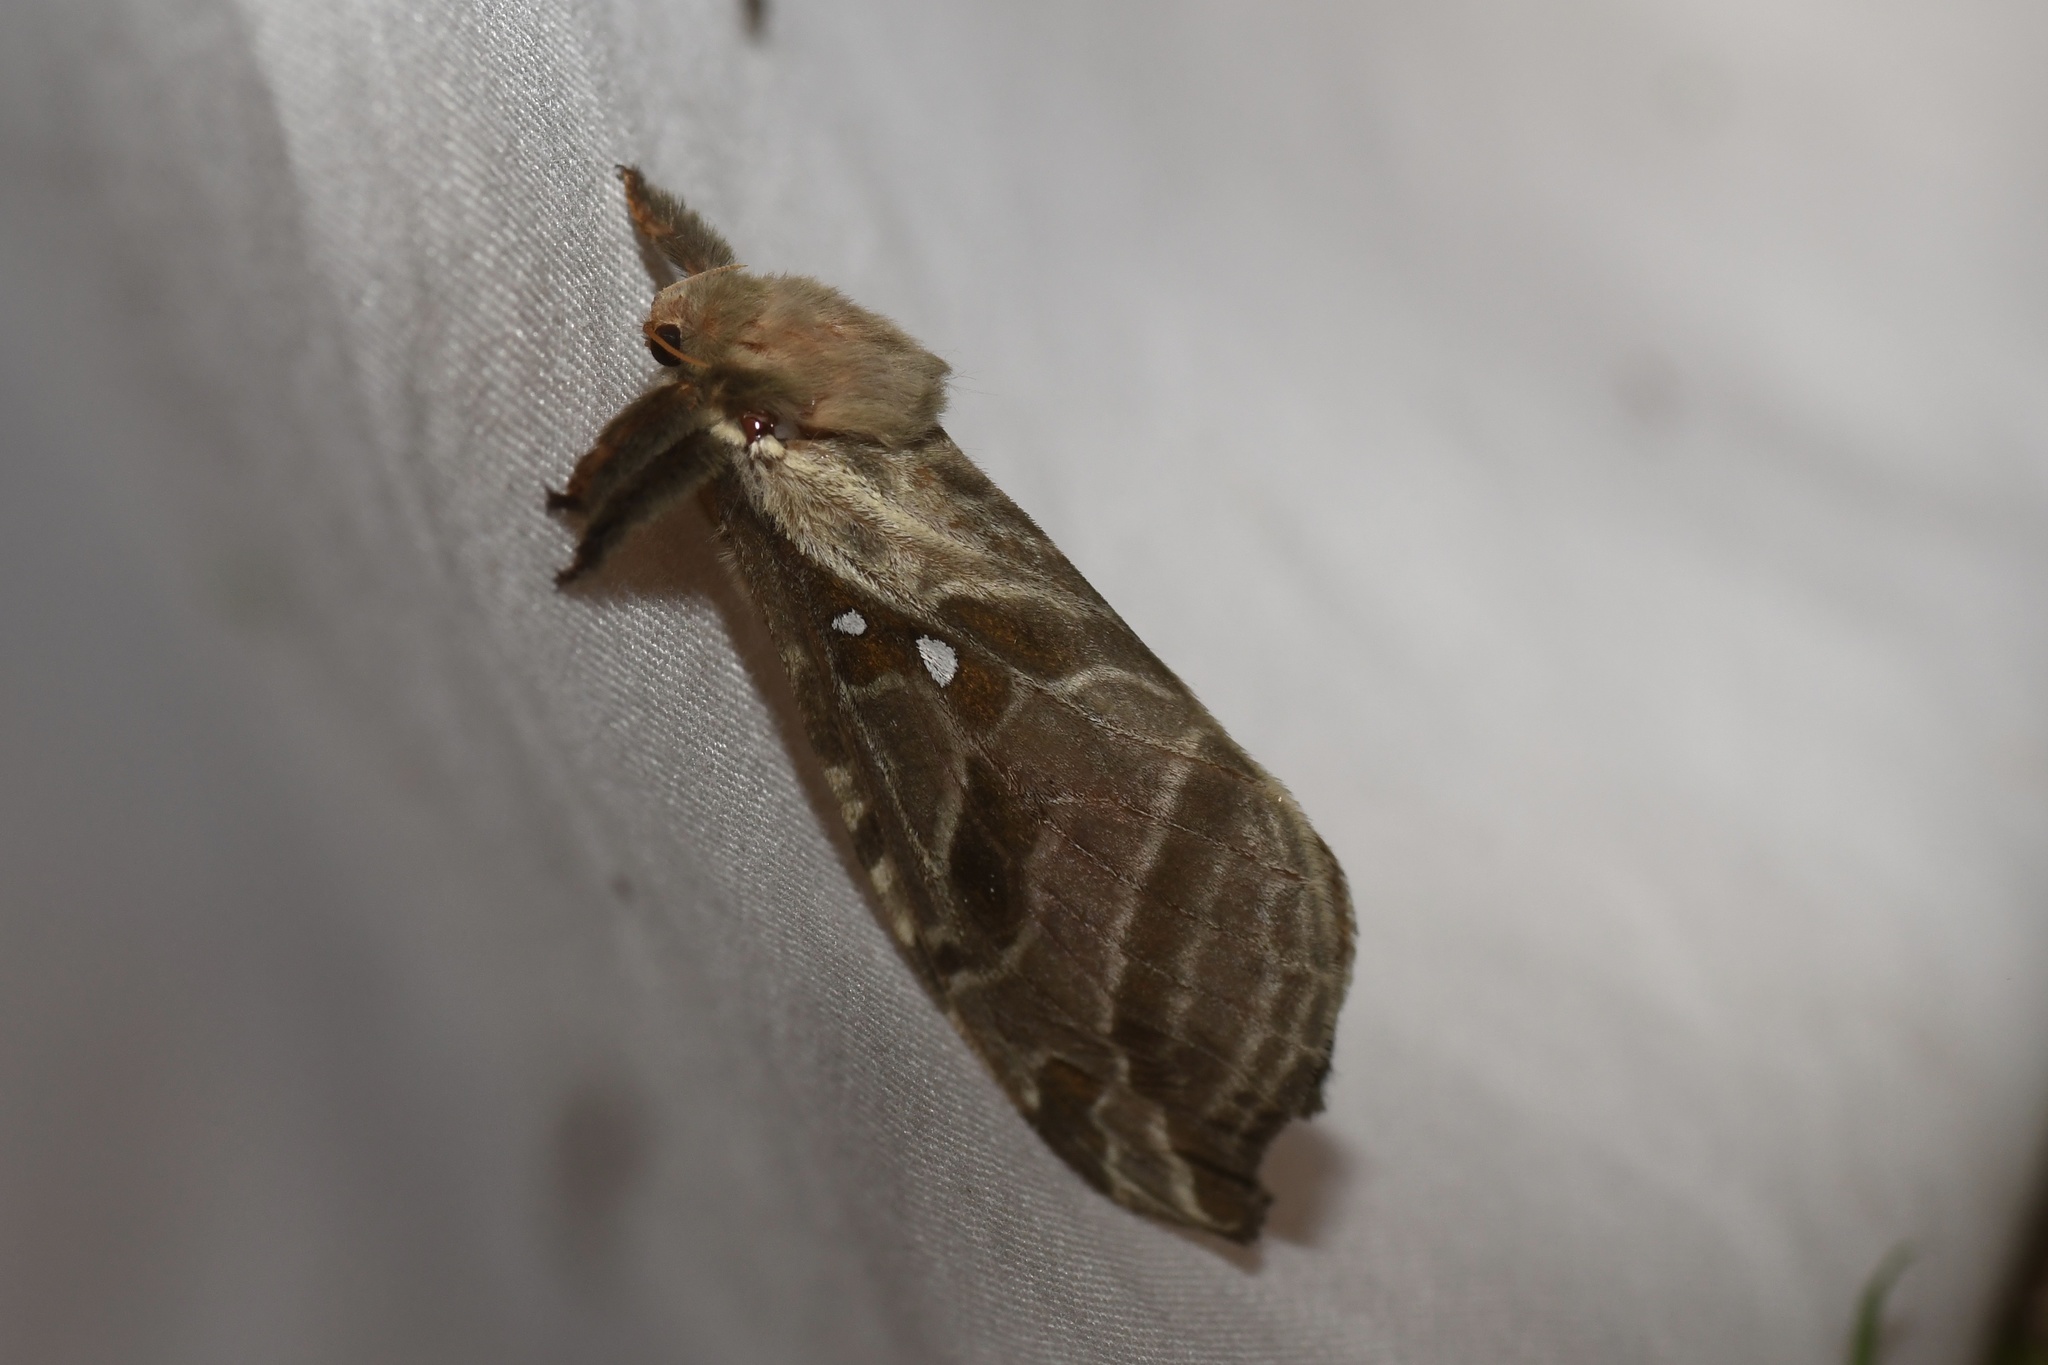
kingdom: Animalia
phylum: Arthropoda
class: Insecta
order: Lepidoptera
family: Hepialidae
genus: Sthenopis
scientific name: Sthenopis argenteomaculatus
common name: Silver-spotted ghost moth
